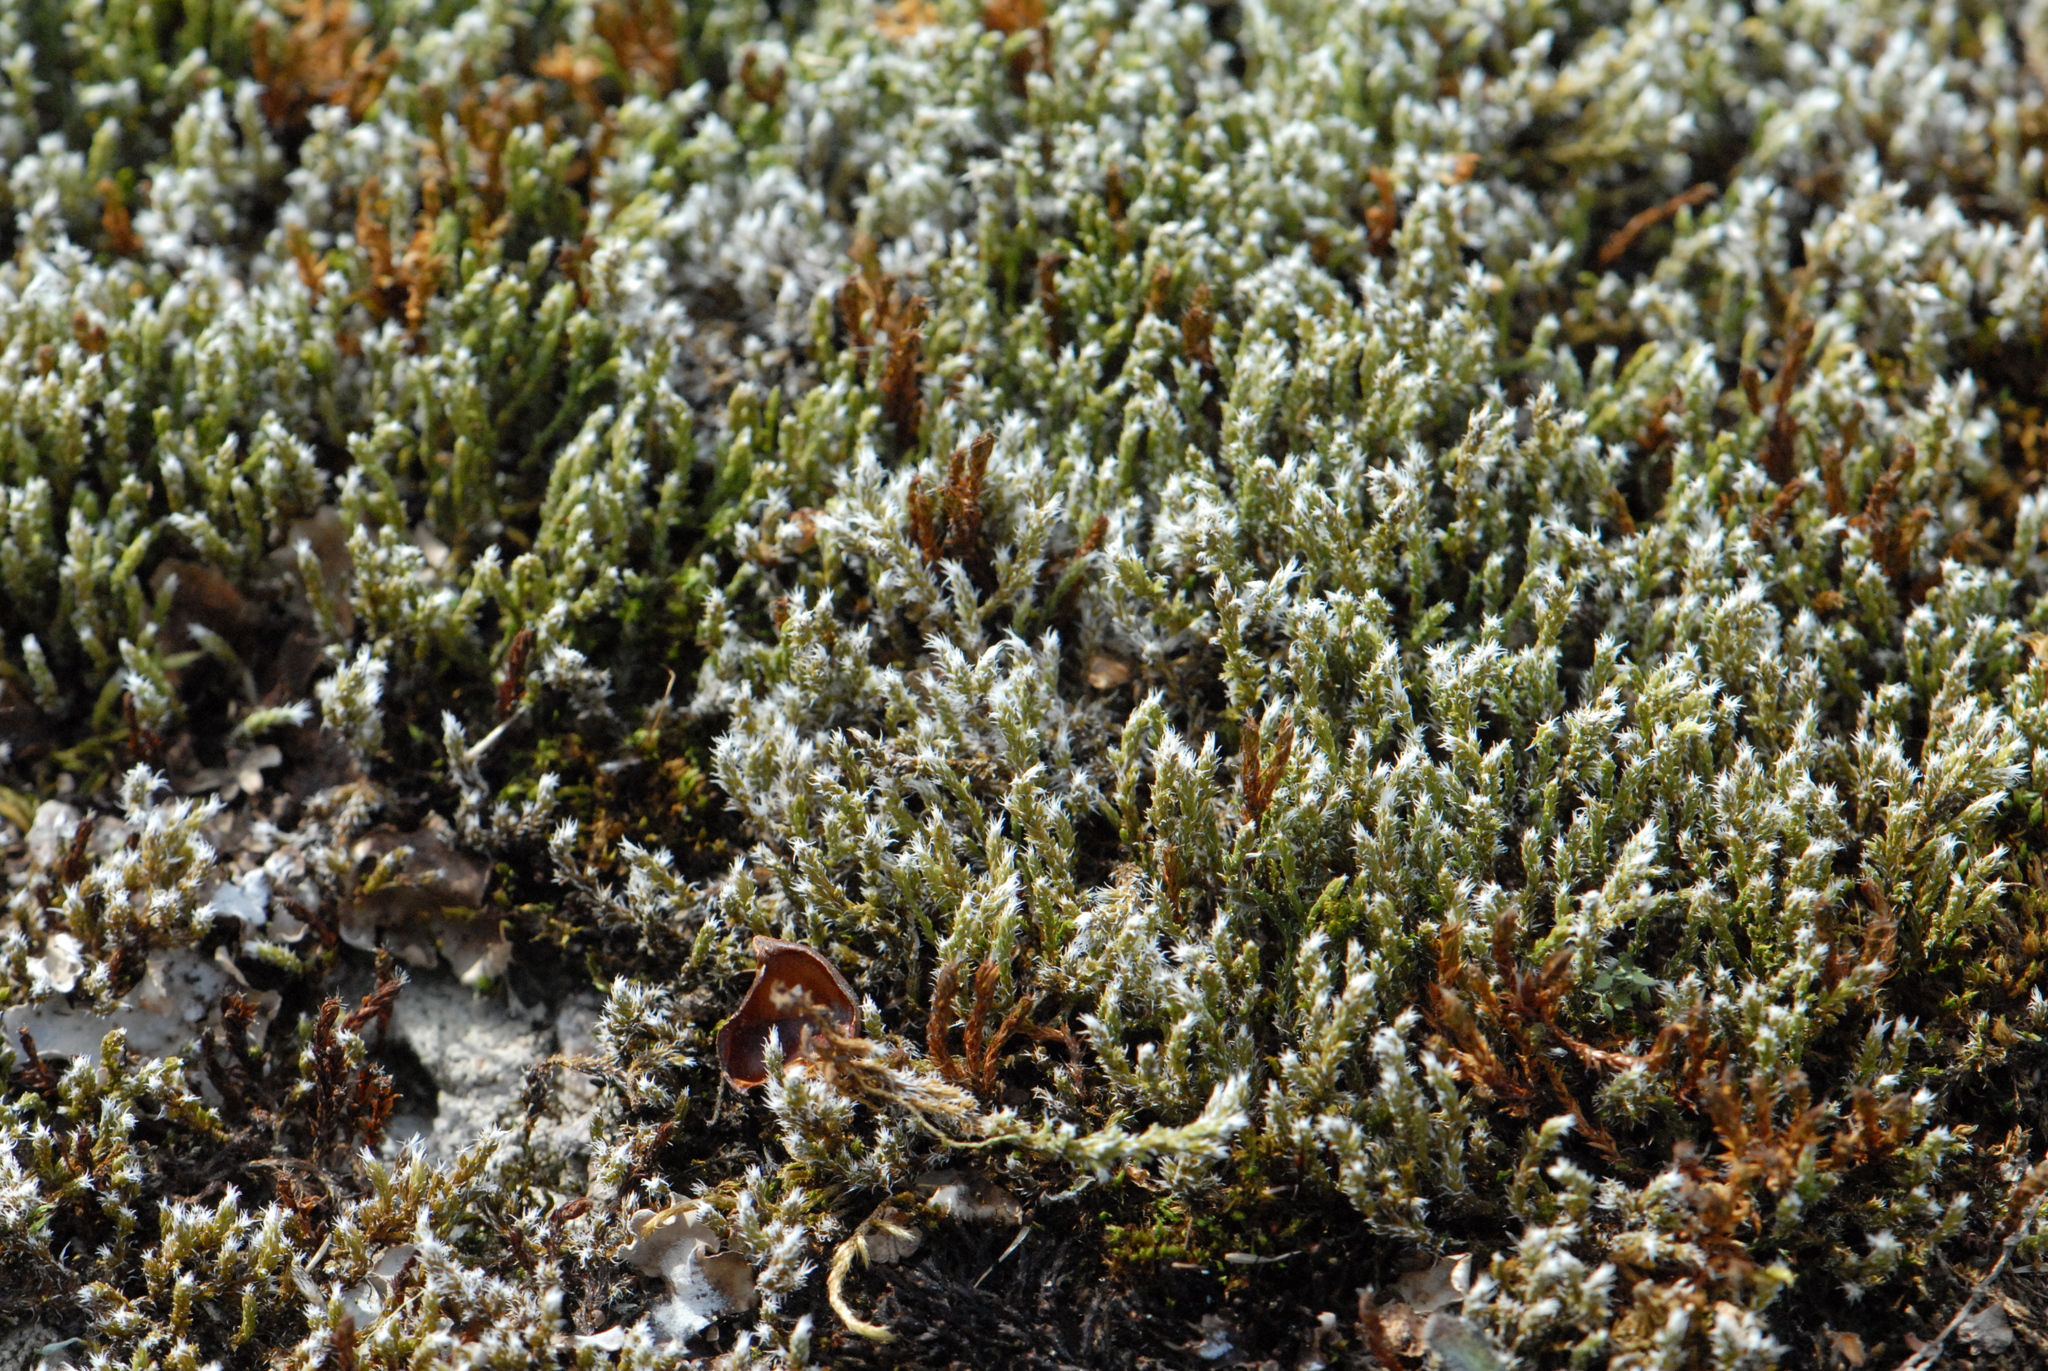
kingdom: Plantae
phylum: Bryophyta
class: Bryopsida
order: Bryales
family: Bryaceae
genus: Bryum
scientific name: Bryum argenteum
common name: Silver-moss
